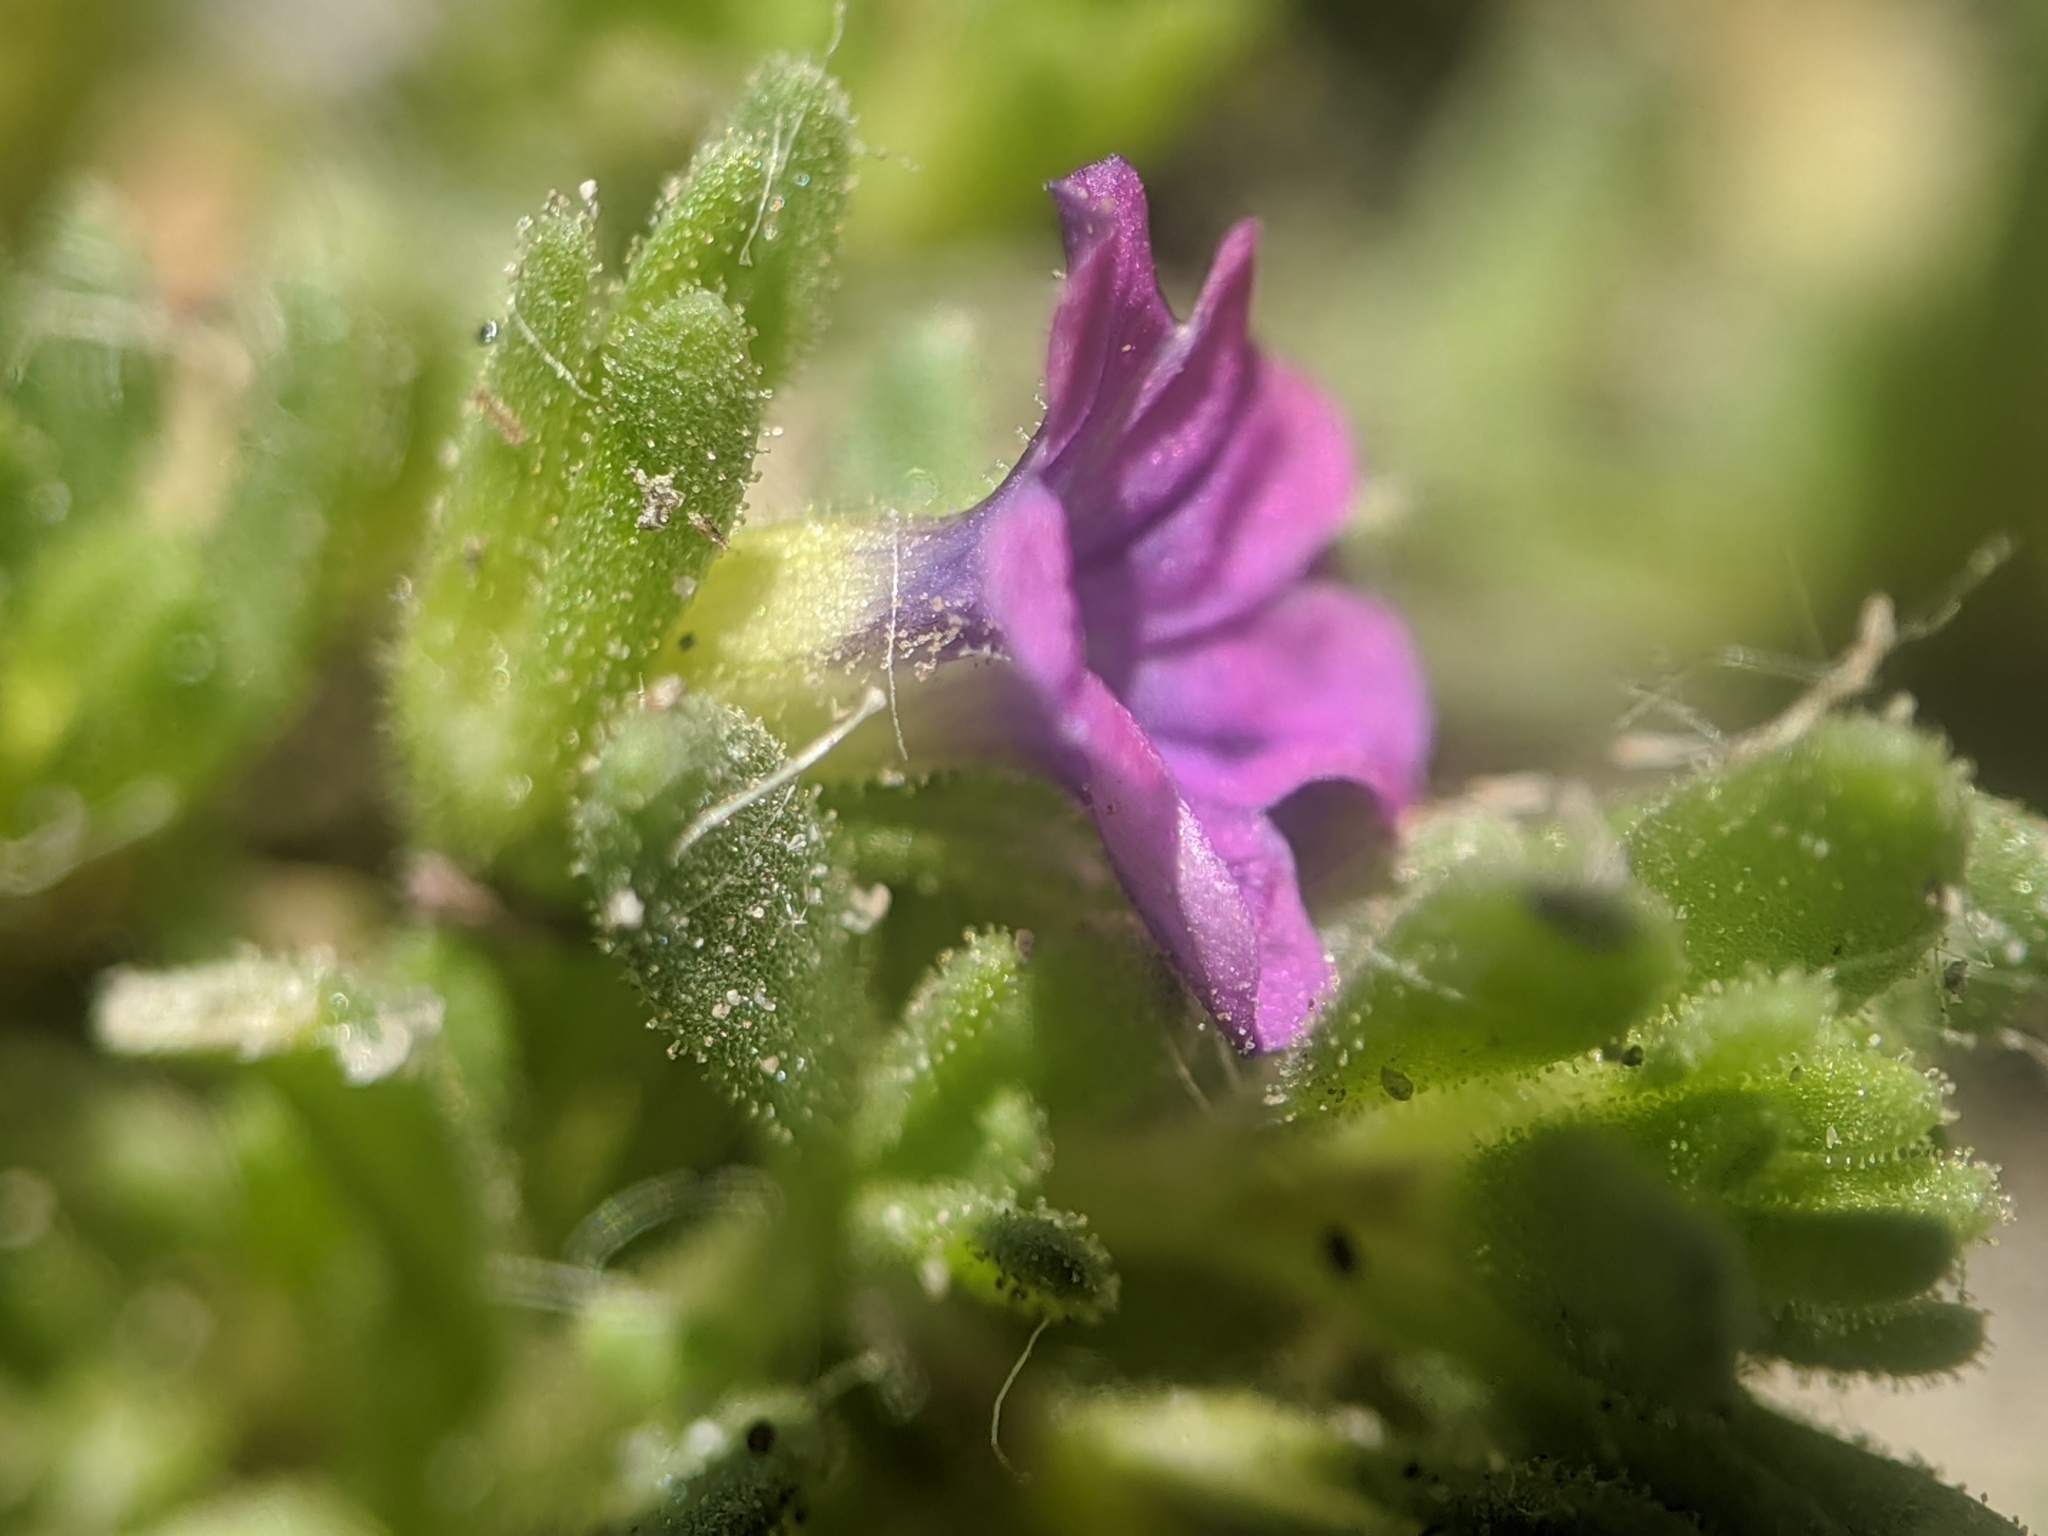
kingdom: Plantae
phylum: Tracheophyta
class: Magnoliopsida
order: Solanales
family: Solanaceae
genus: Calibrachoa
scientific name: Calibrachoa parviflora
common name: Seaside petunia
